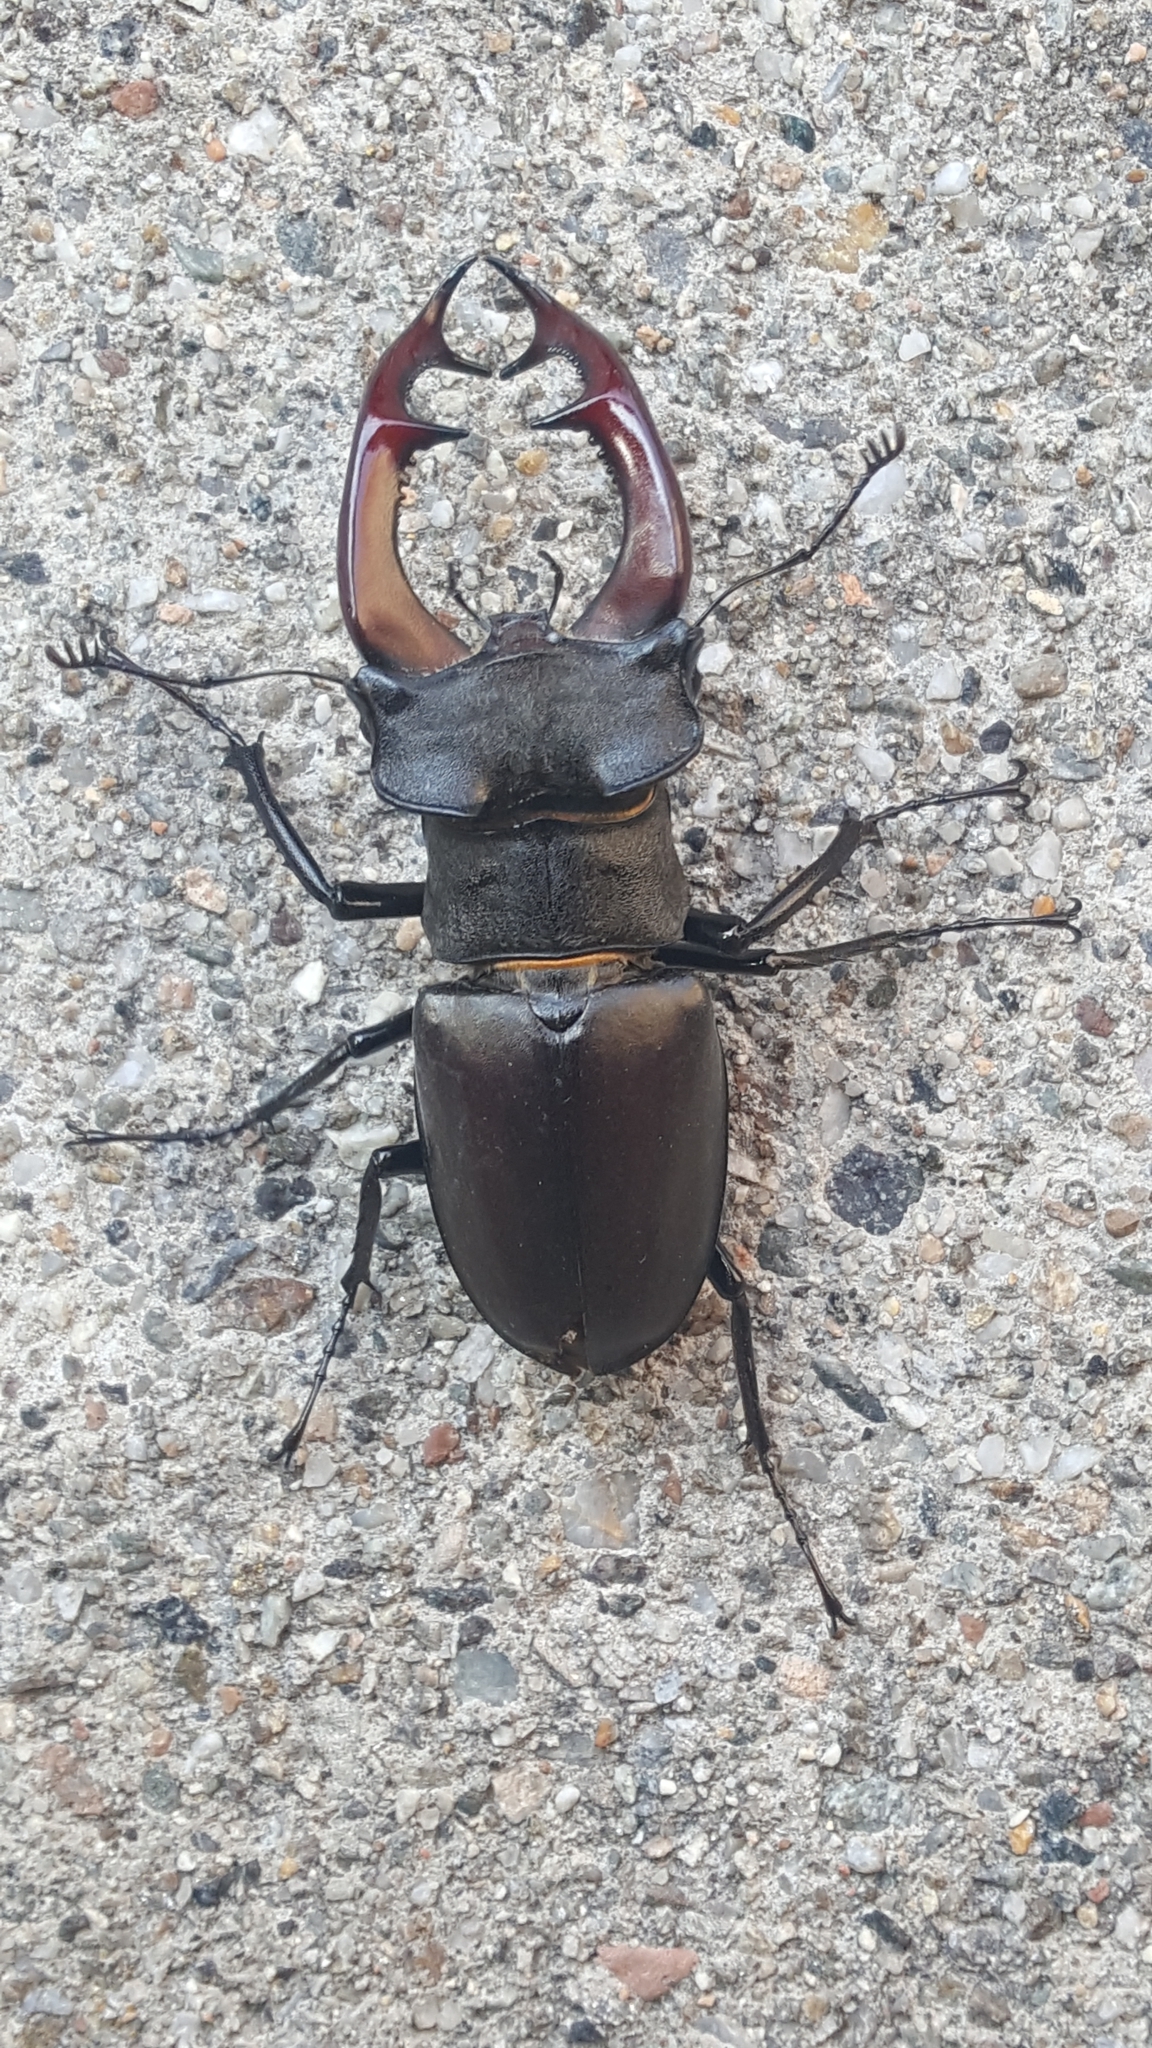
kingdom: Animalia
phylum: Arthropoda
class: Insecta
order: Coleoptera
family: Lucanidae
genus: Lucanus
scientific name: Lucanus cervus
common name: Stag beetle
